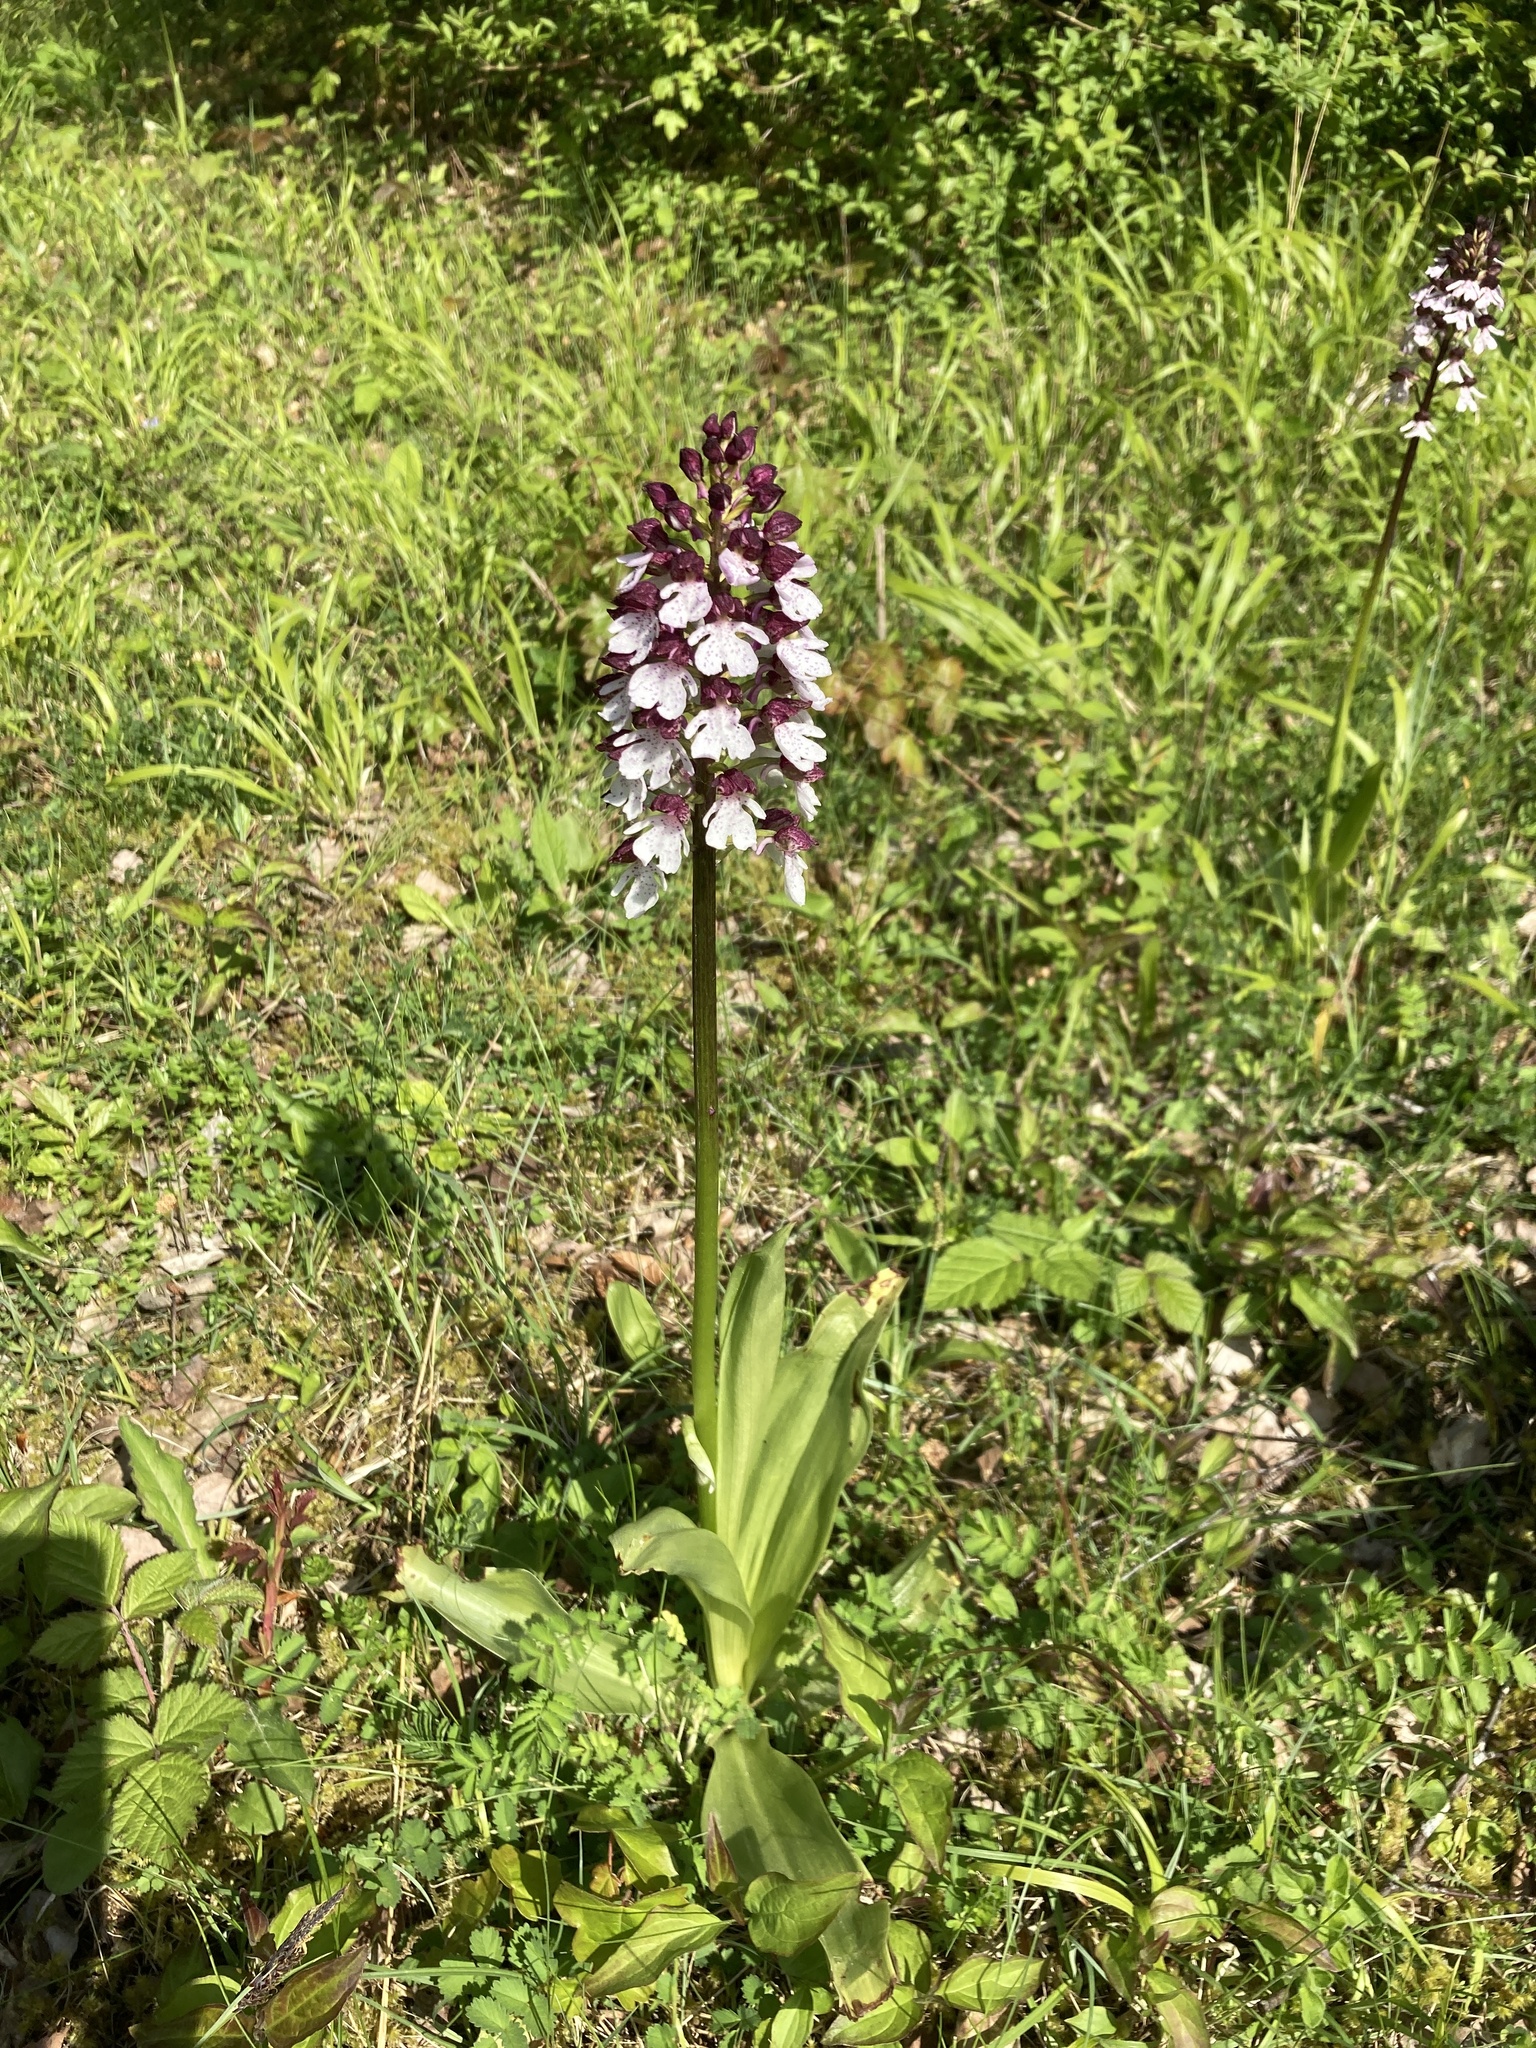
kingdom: Plantae
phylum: Tracheophyta
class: Liliopsida
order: Asparagales
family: Orchidaceae
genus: Orchis
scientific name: Orchis purpurea
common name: Lady orchid
